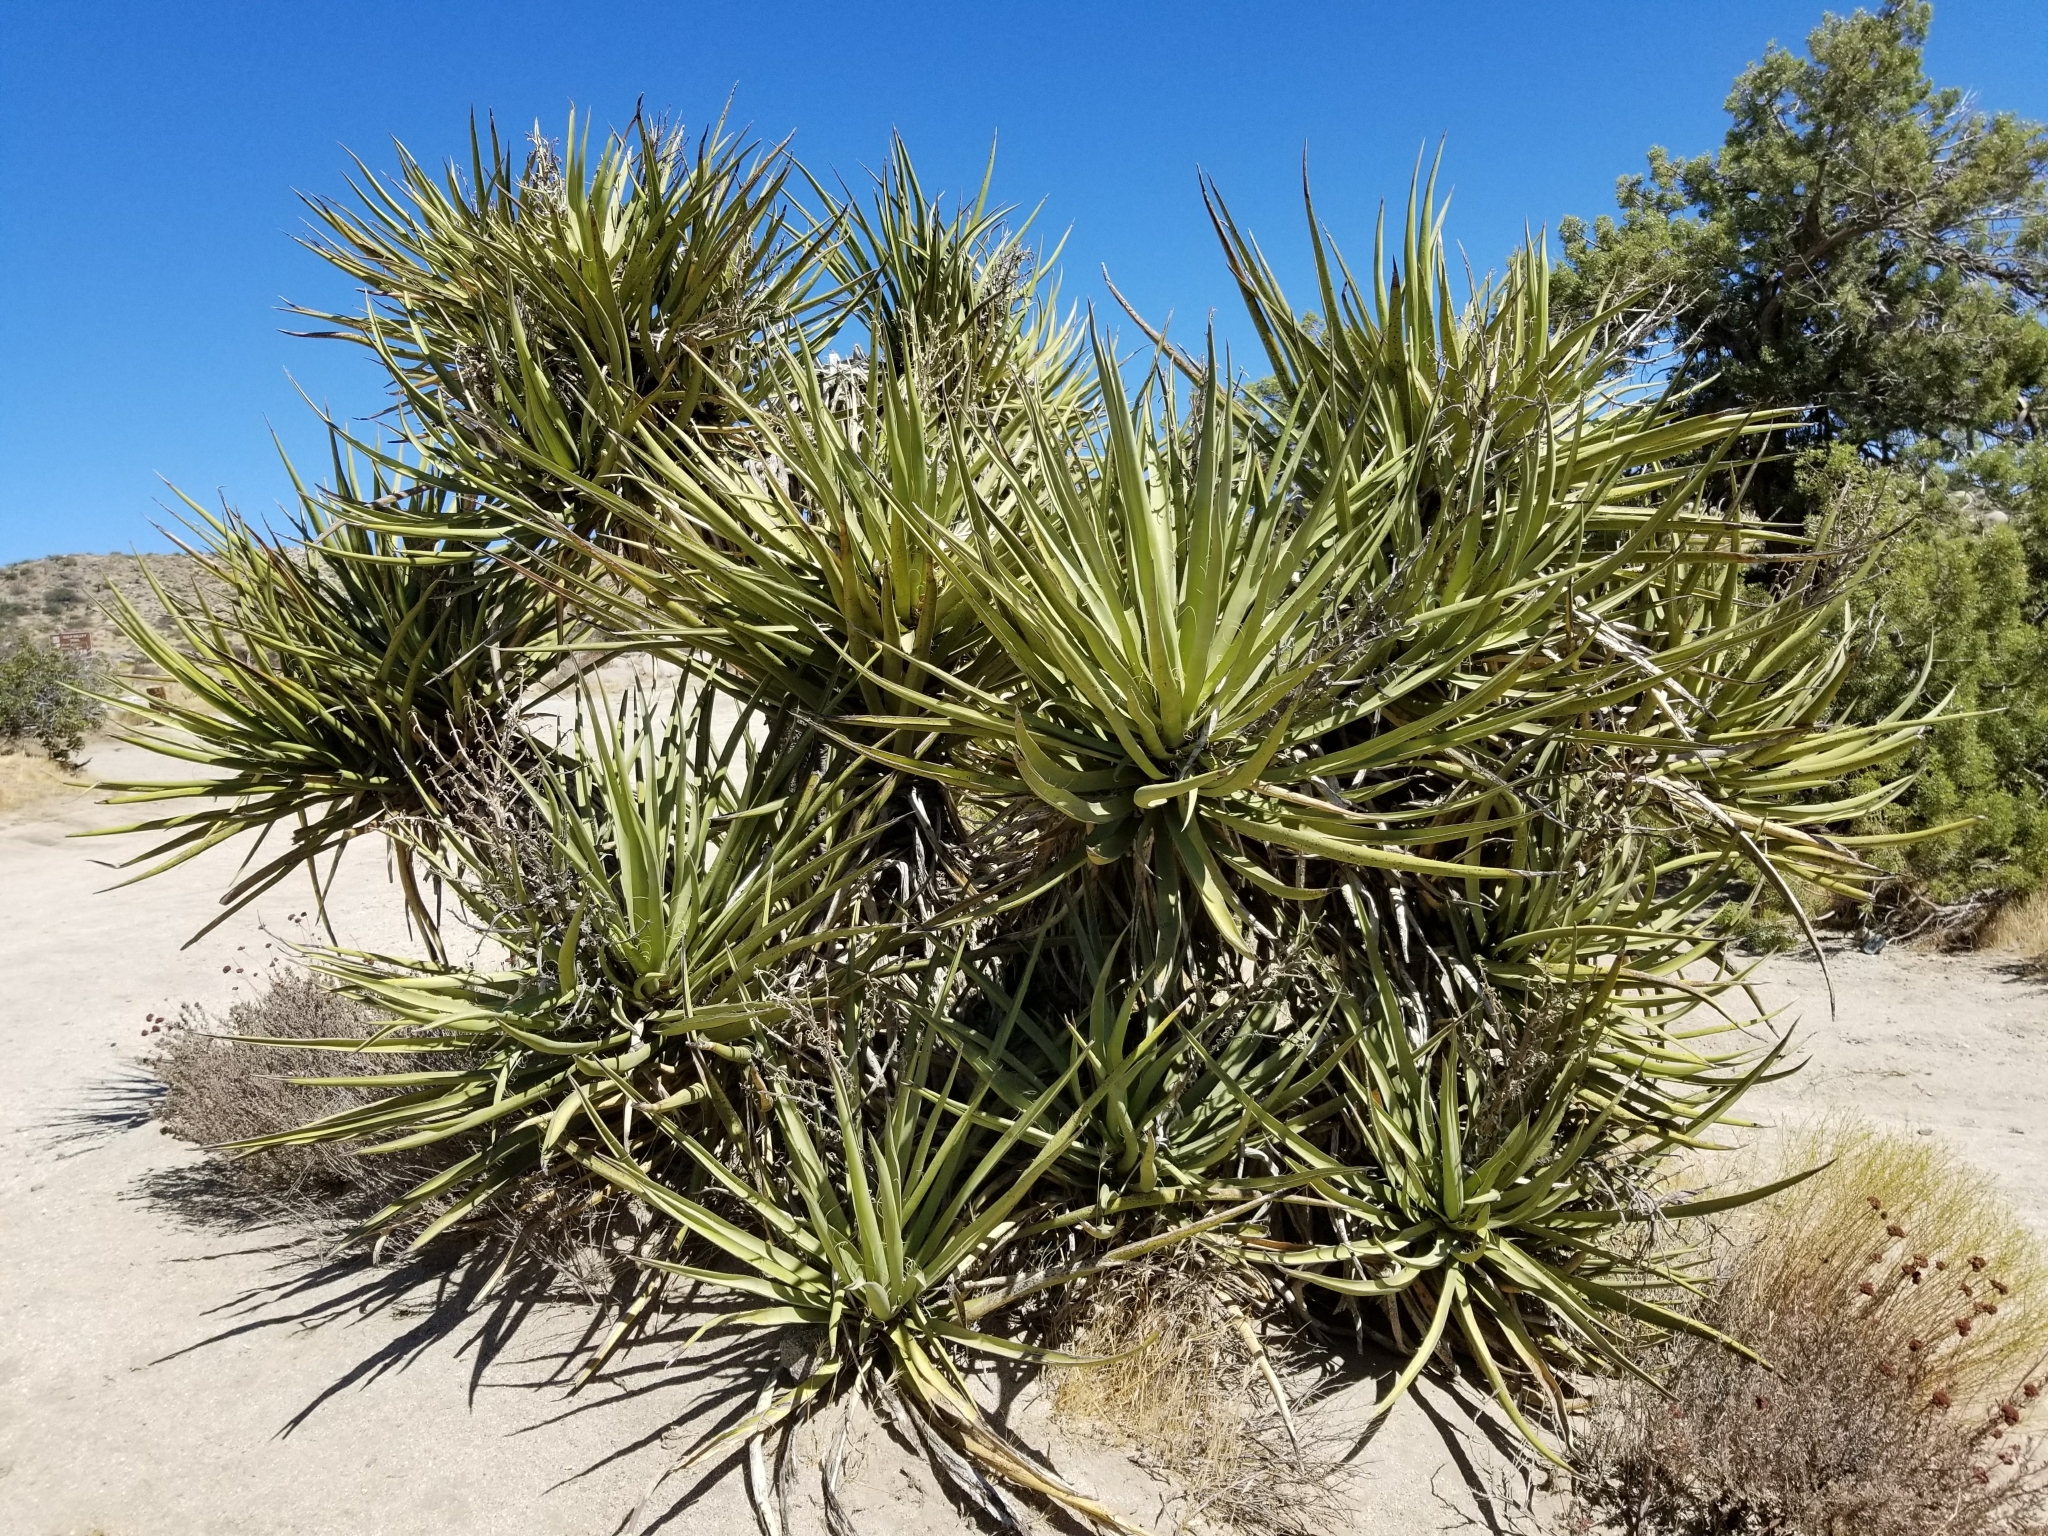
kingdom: Plantae
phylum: Tracheophyta
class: Liliopsida
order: Asparagales
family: Asparagaceae
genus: Yucca
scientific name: Yucca schidigera
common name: Mojave yucca
